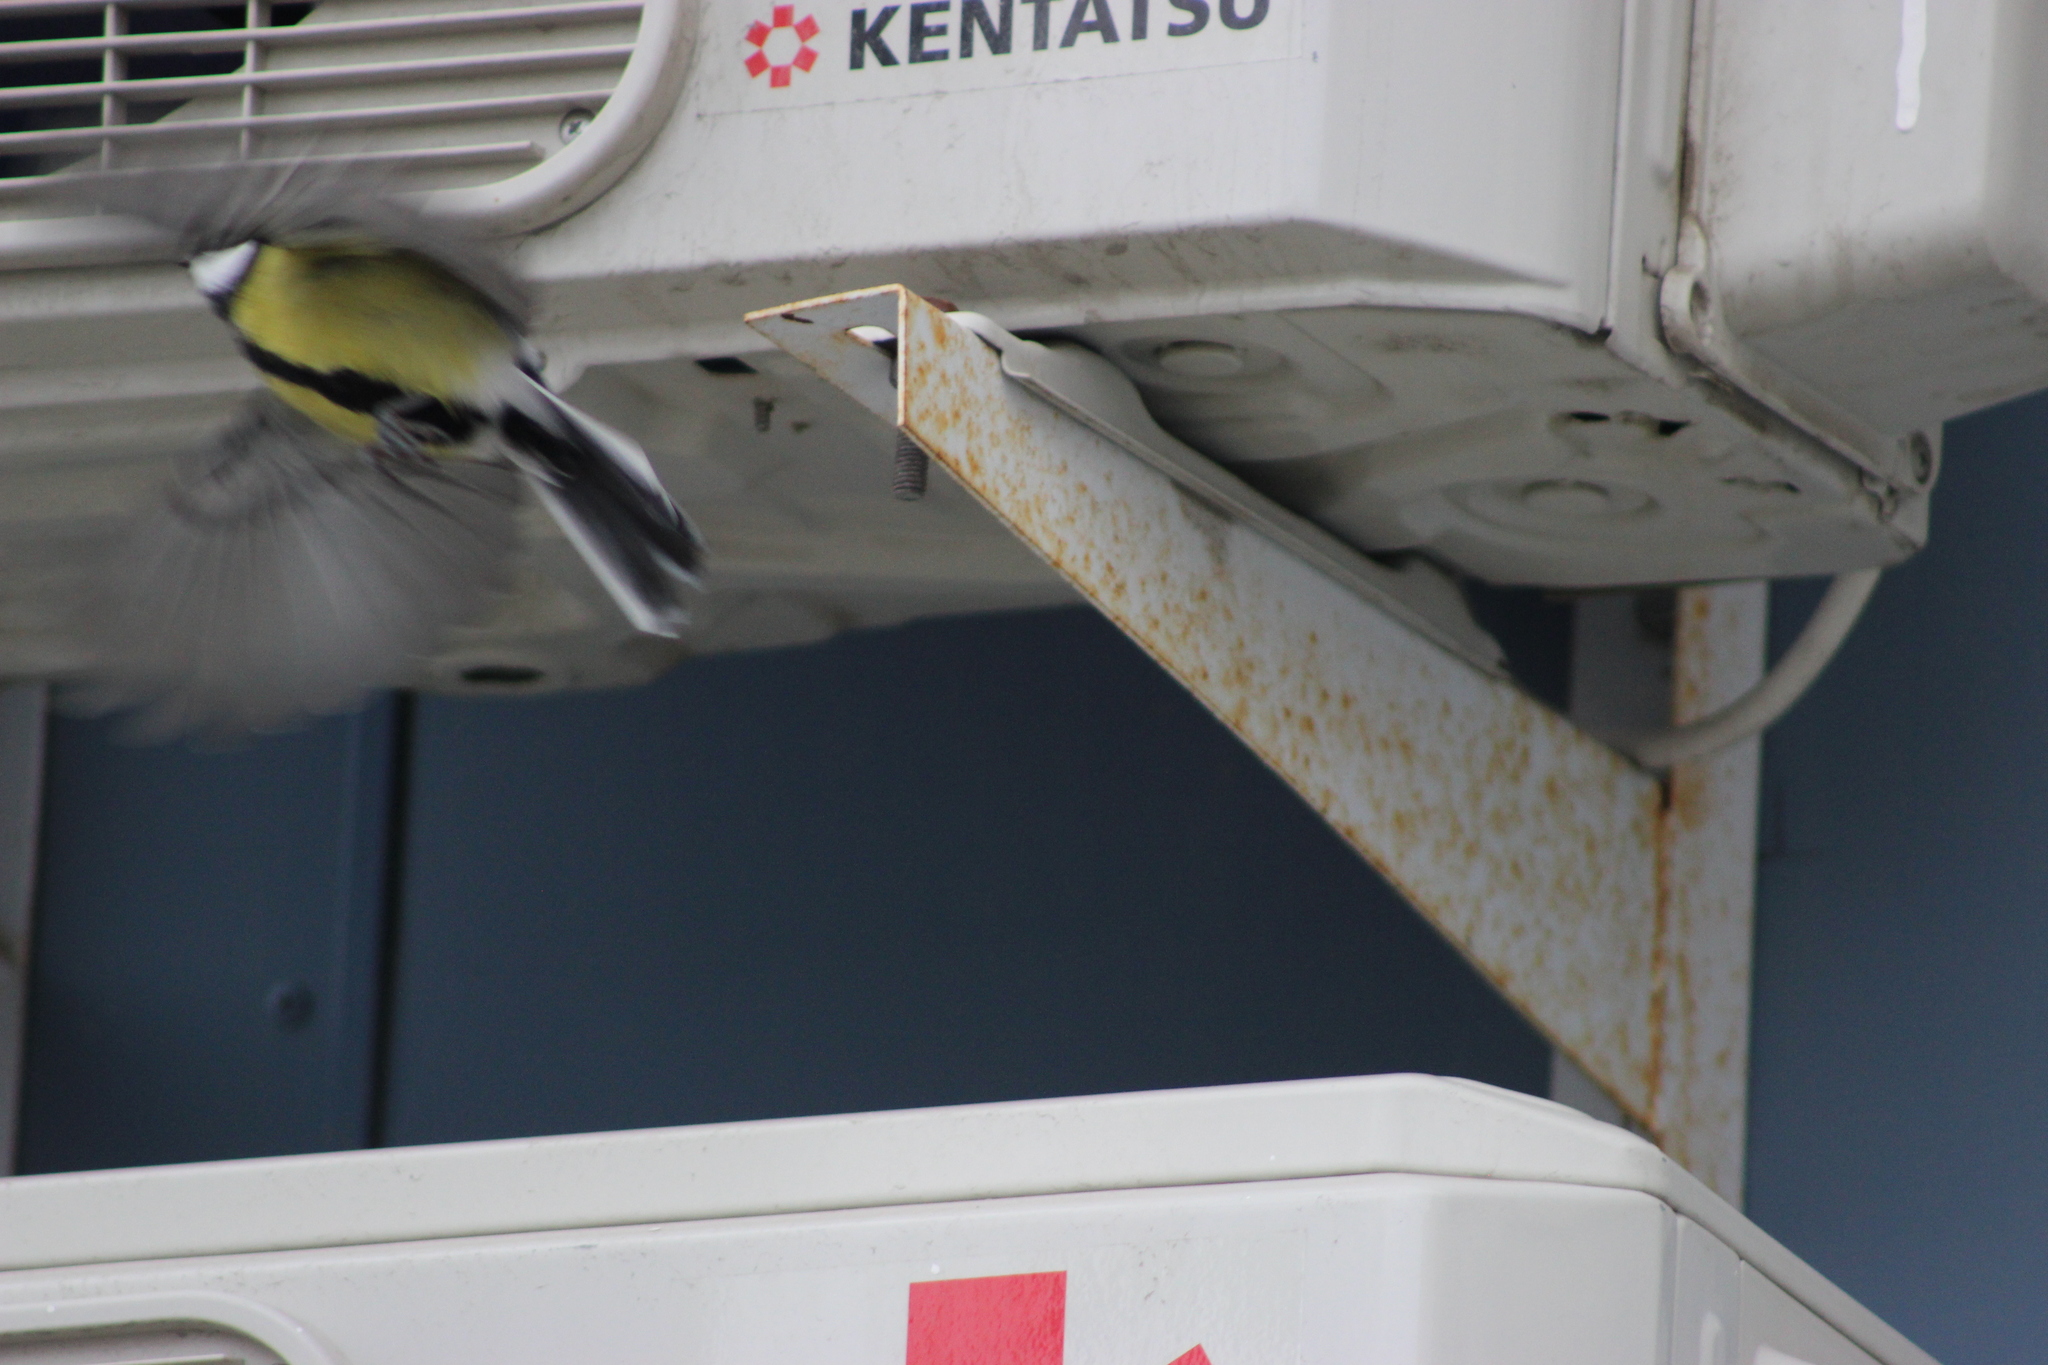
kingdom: Animalia
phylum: Chordata
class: Aves
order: Passeriformes
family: Paridae
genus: Parus
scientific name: Parus major
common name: Great tit
